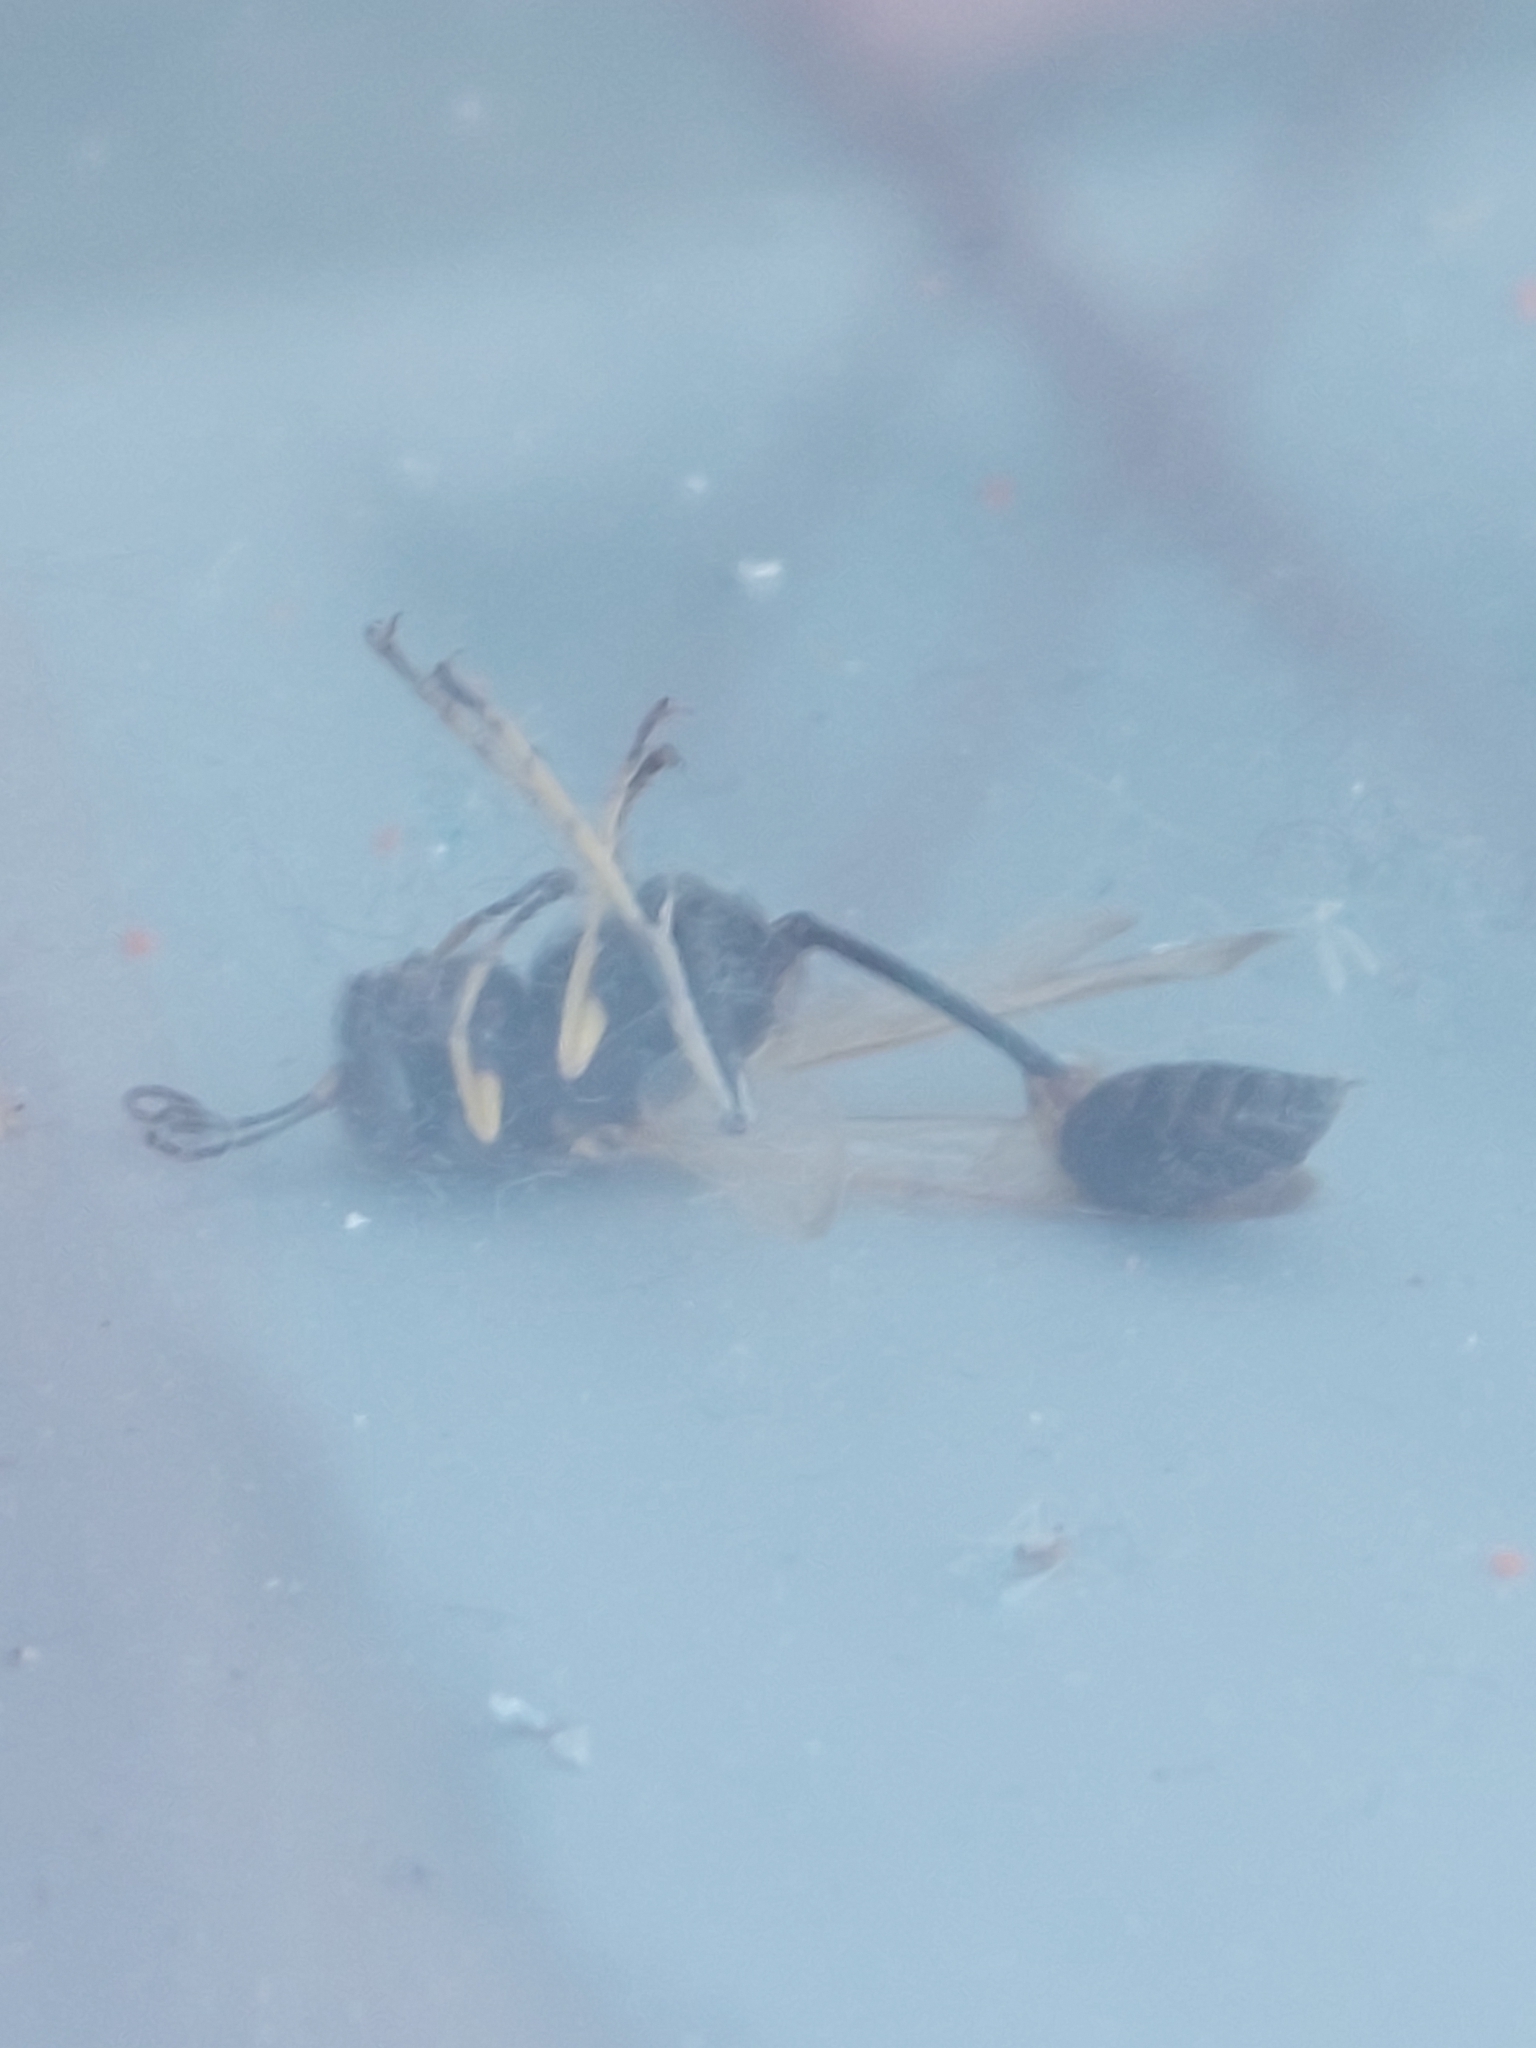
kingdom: Animalia
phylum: Arthropoda
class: Insecta
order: Hymenoptera
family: Sphecidae
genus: Sceliphron
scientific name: Sceliphron caementarium
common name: Mud dauber
